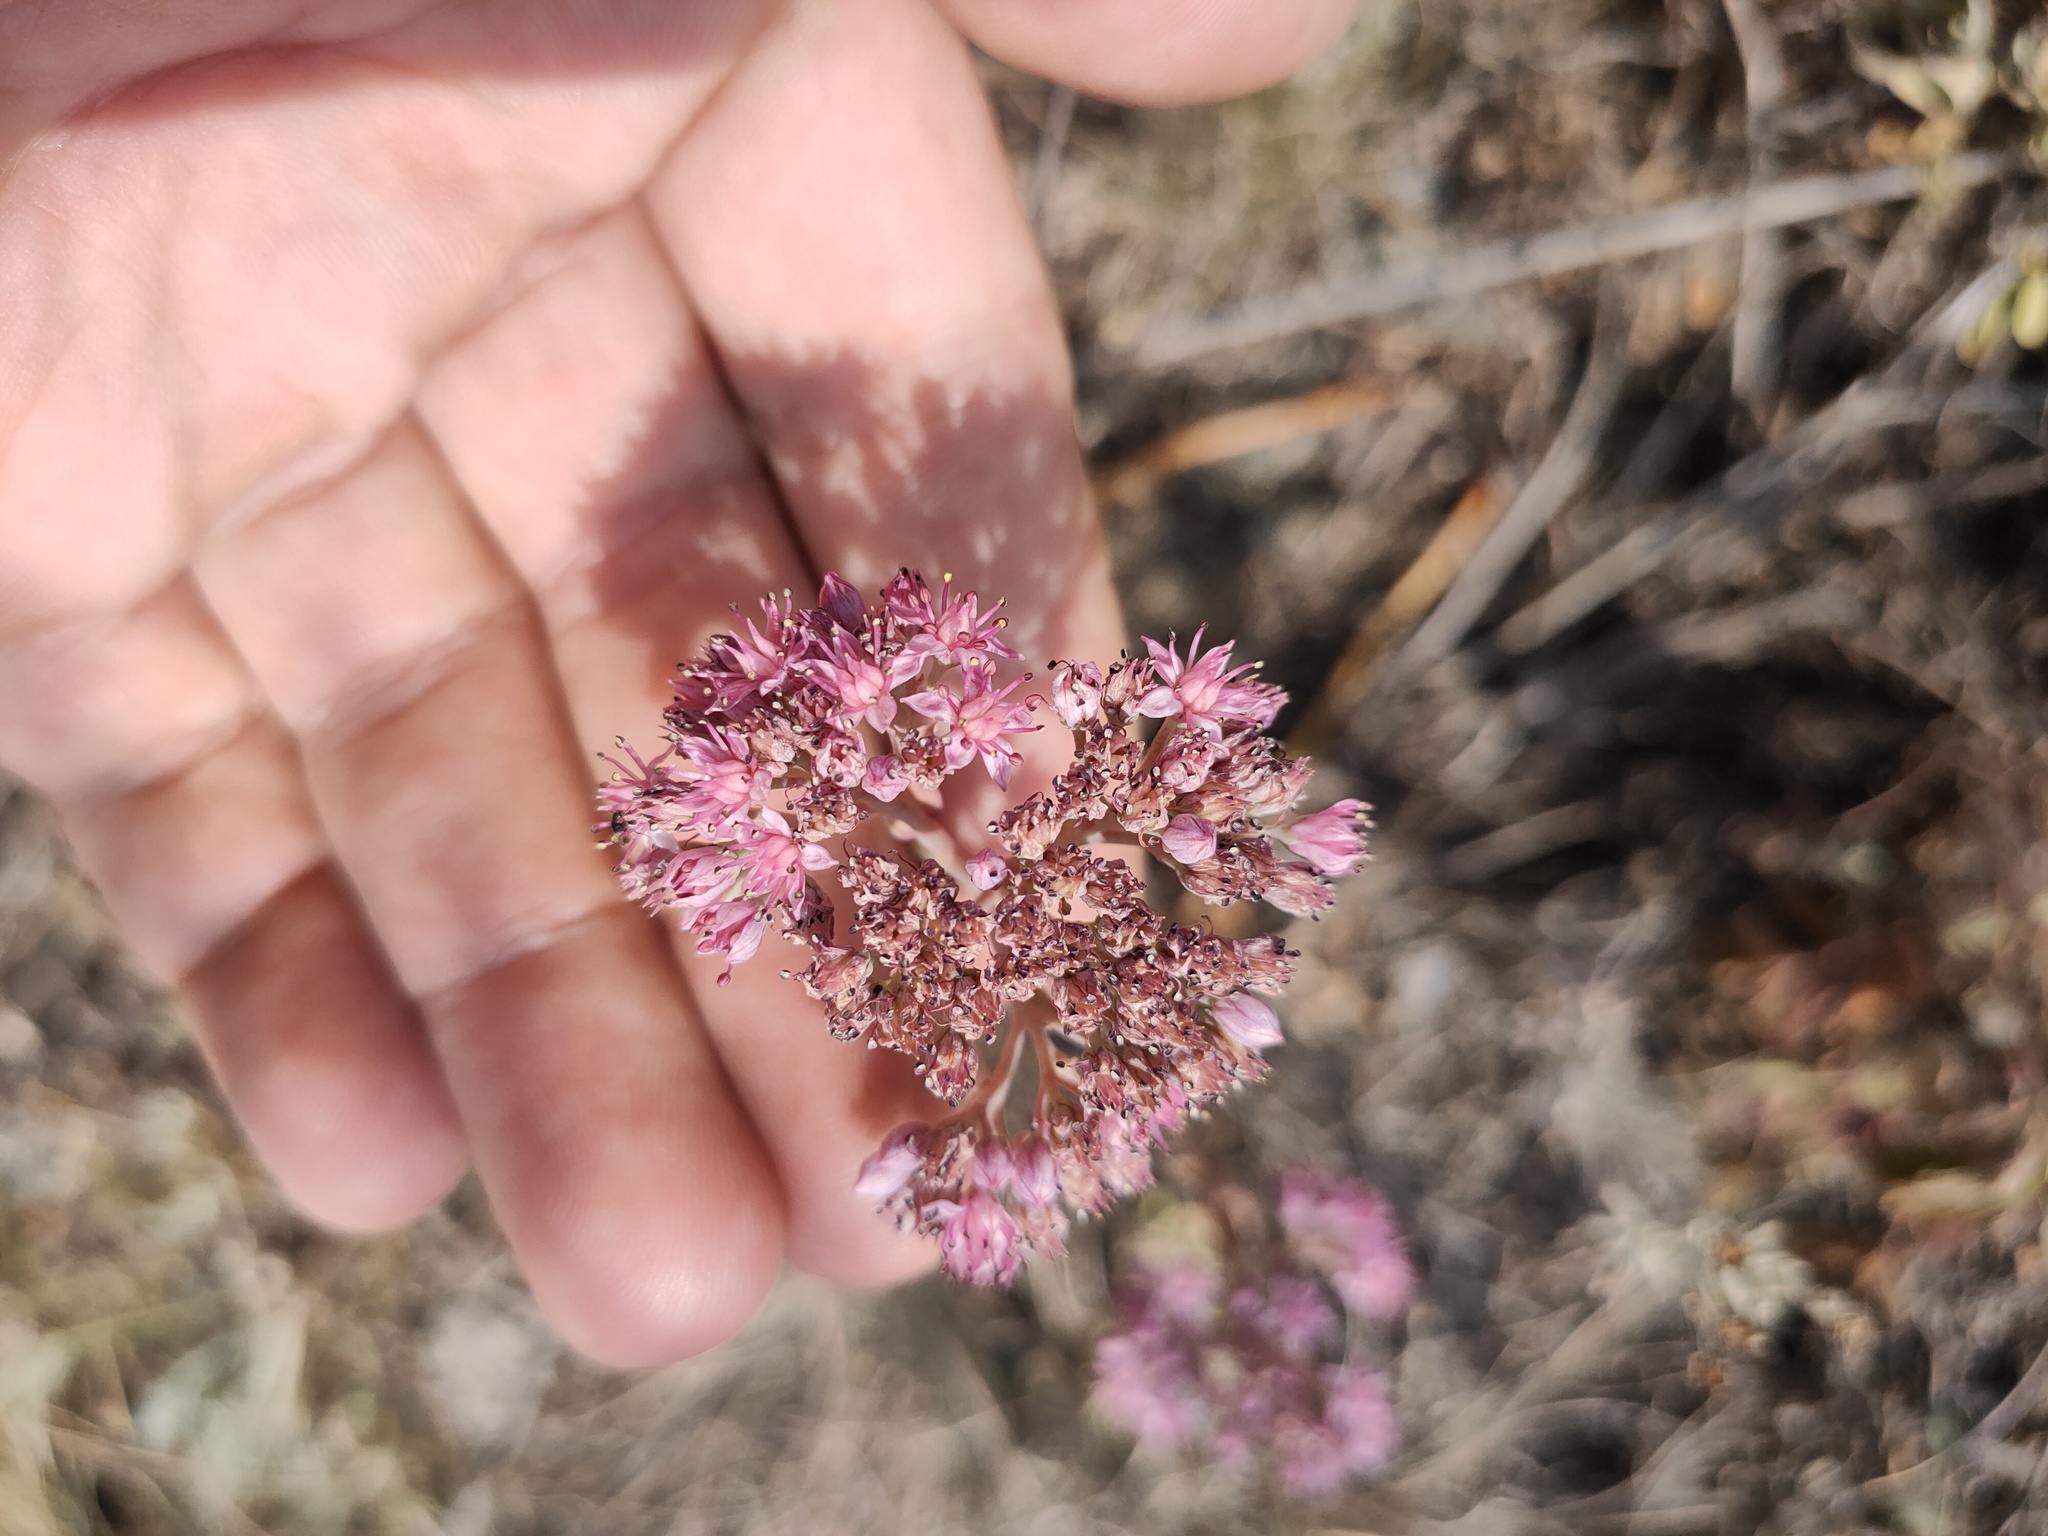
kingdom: Plantae
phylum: Tracheophyta
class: Magnoliopsida
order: Saxifragales
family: Crassulaceae
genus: Hylotelephium
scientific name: Hylotelephium telephium
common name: Live-forever
